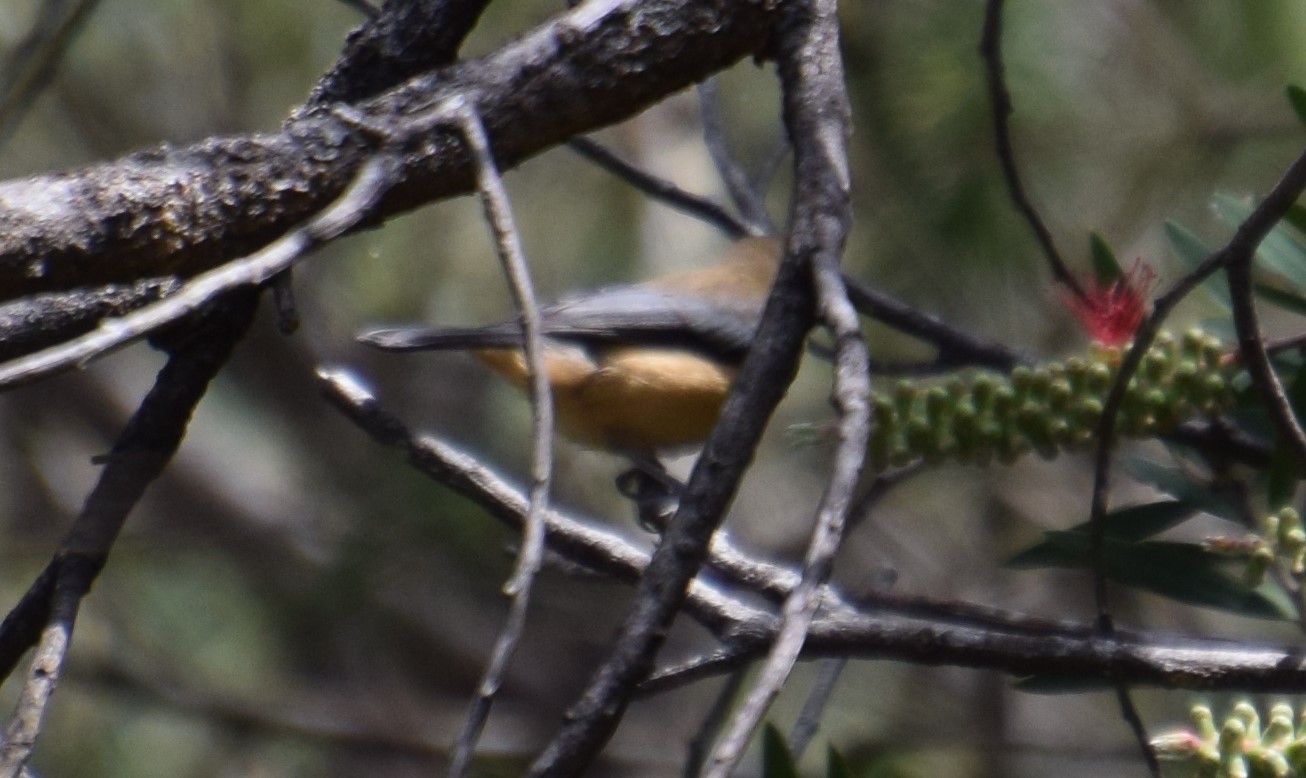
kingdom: Animalia
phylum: Chordata
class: Aves
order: Passeriformes
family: Meliphagidae
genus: Acanthorhynchus
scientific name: Acanthorhynchus tenuirostris
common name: Eastern spinebill
